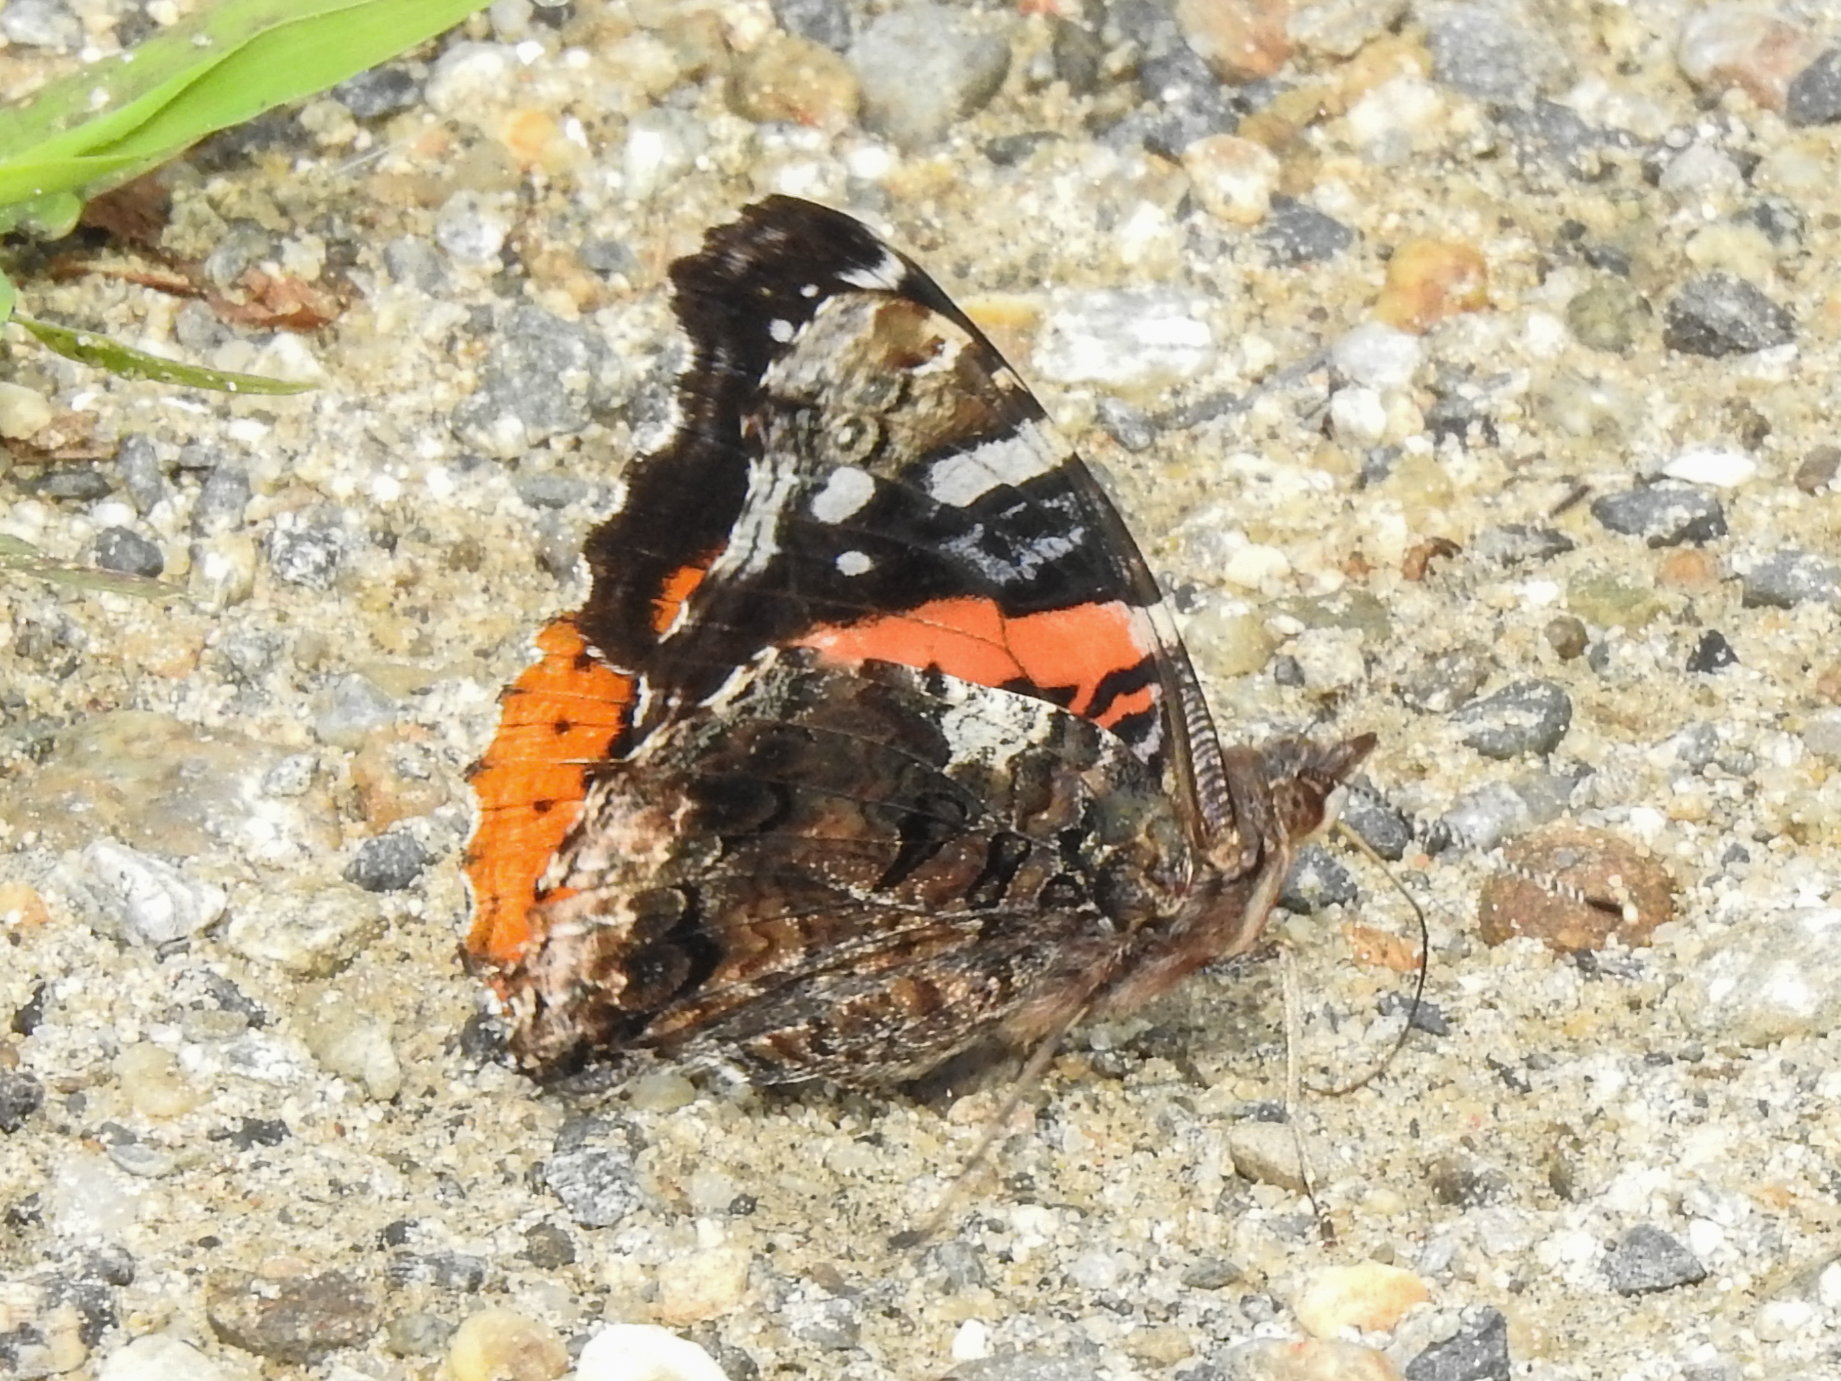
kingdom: Animalia
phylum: Arthropoda
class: Insecta
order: Lepidoptera
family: Nymphalidae
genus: Vanessa
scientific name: Vanessa atalanta
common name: Red admiral
